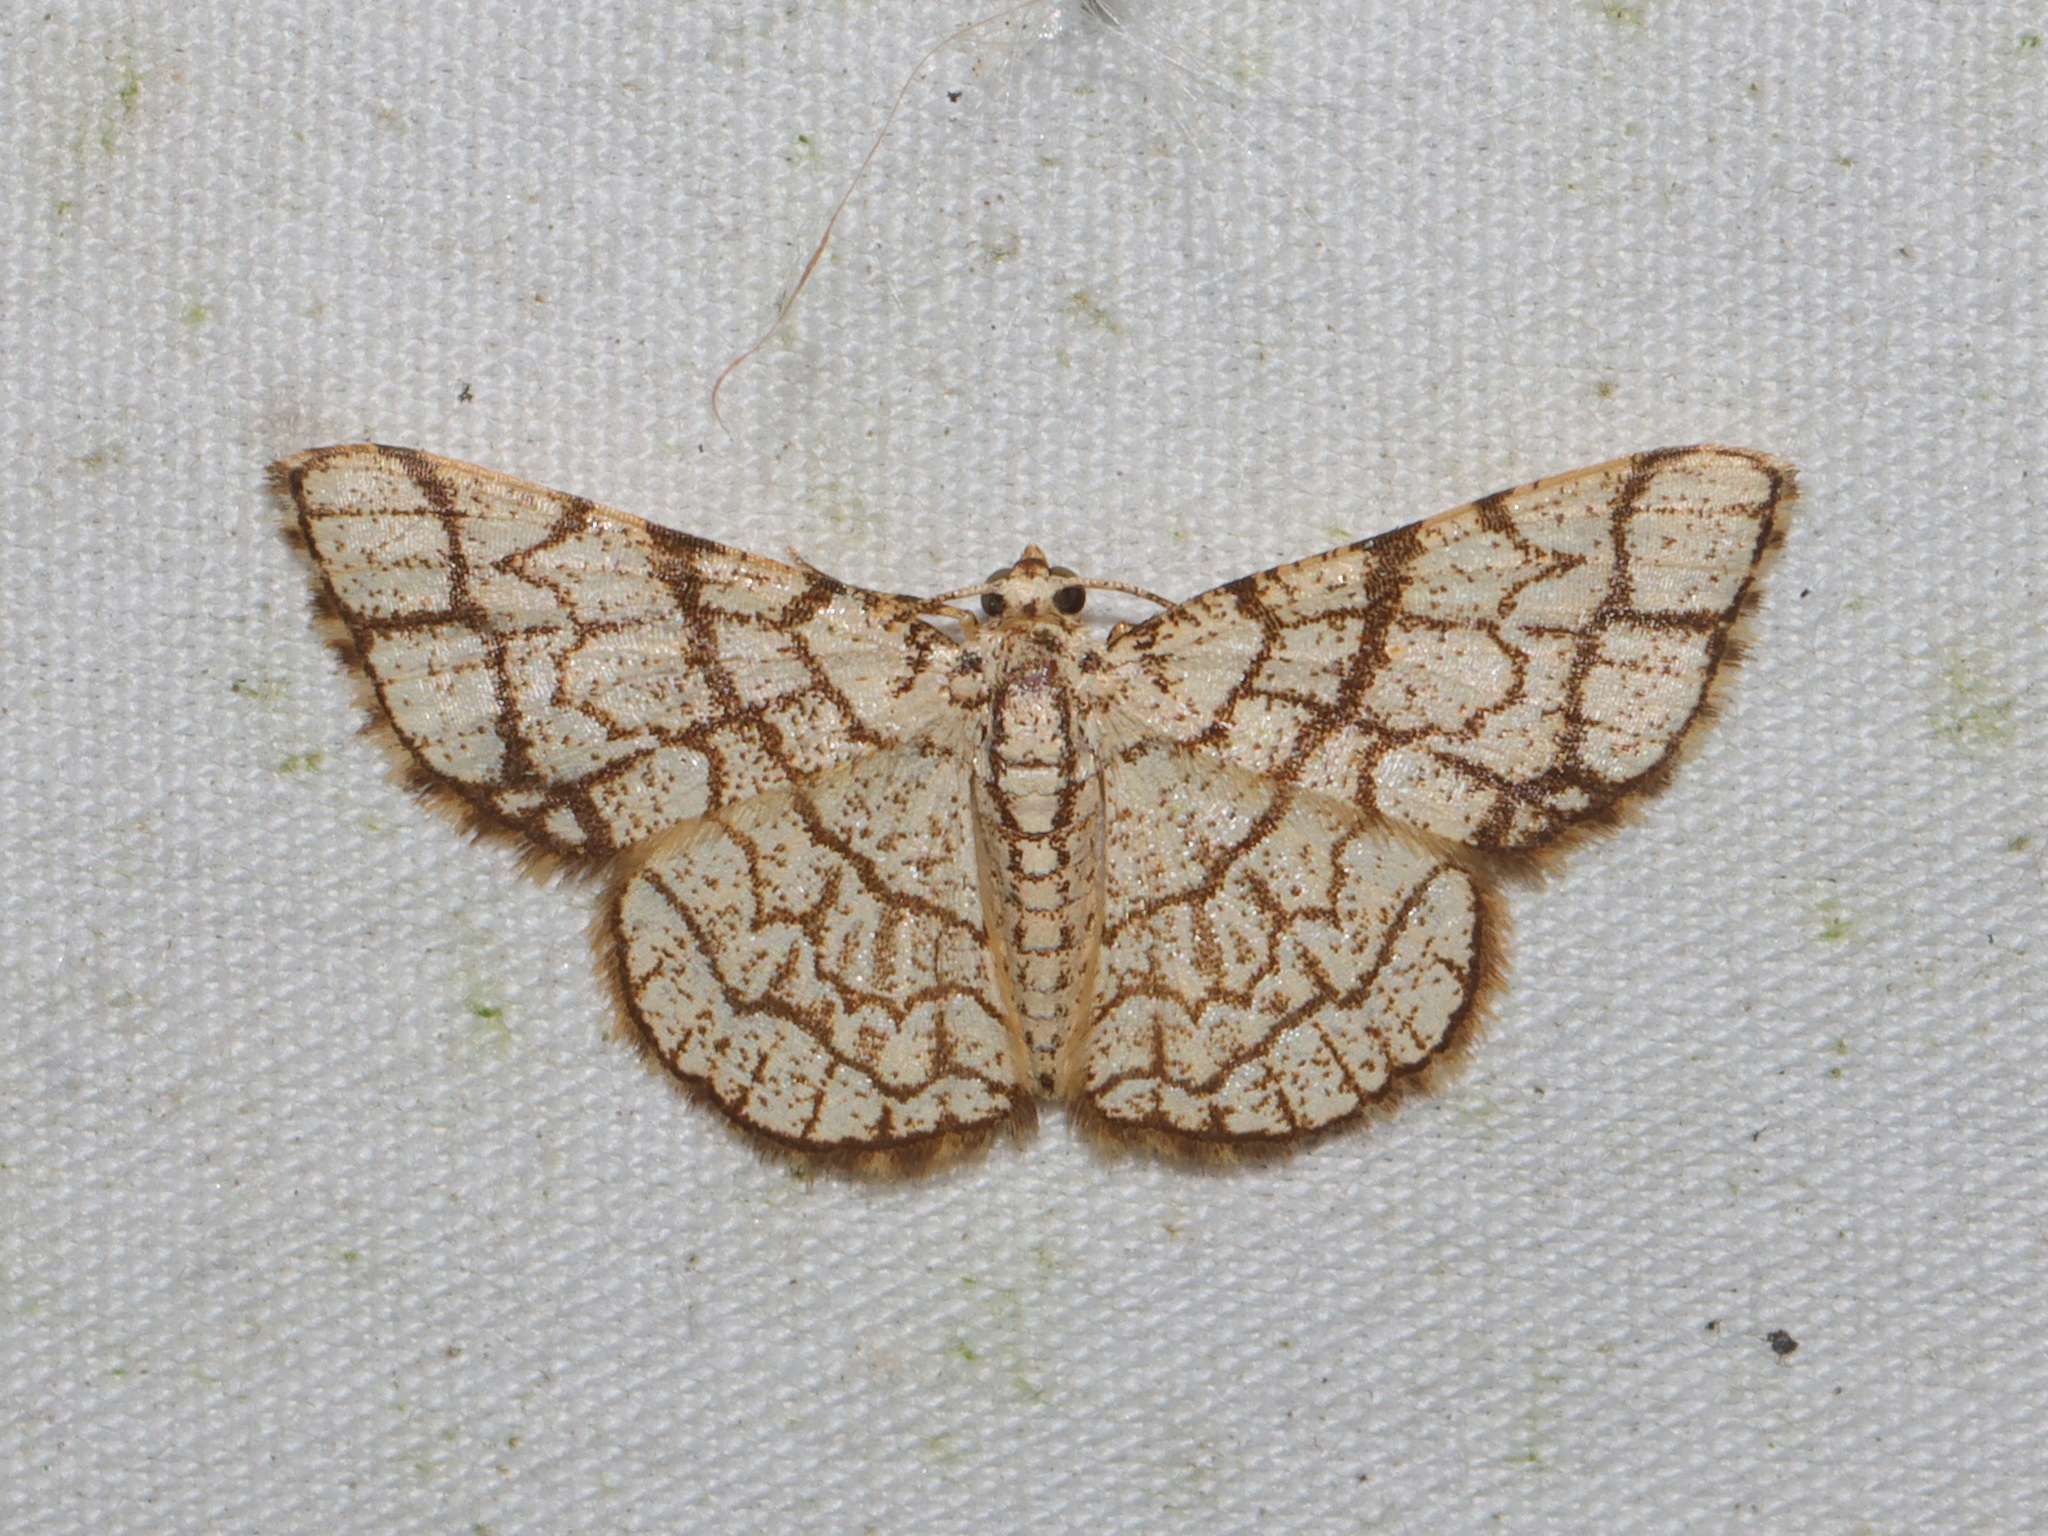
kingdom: Animalia
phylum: Arthropoda
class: Insecta
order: Lepidoptera
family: Geometridae
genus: Heterostegane
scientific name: Heterostegane warreni
